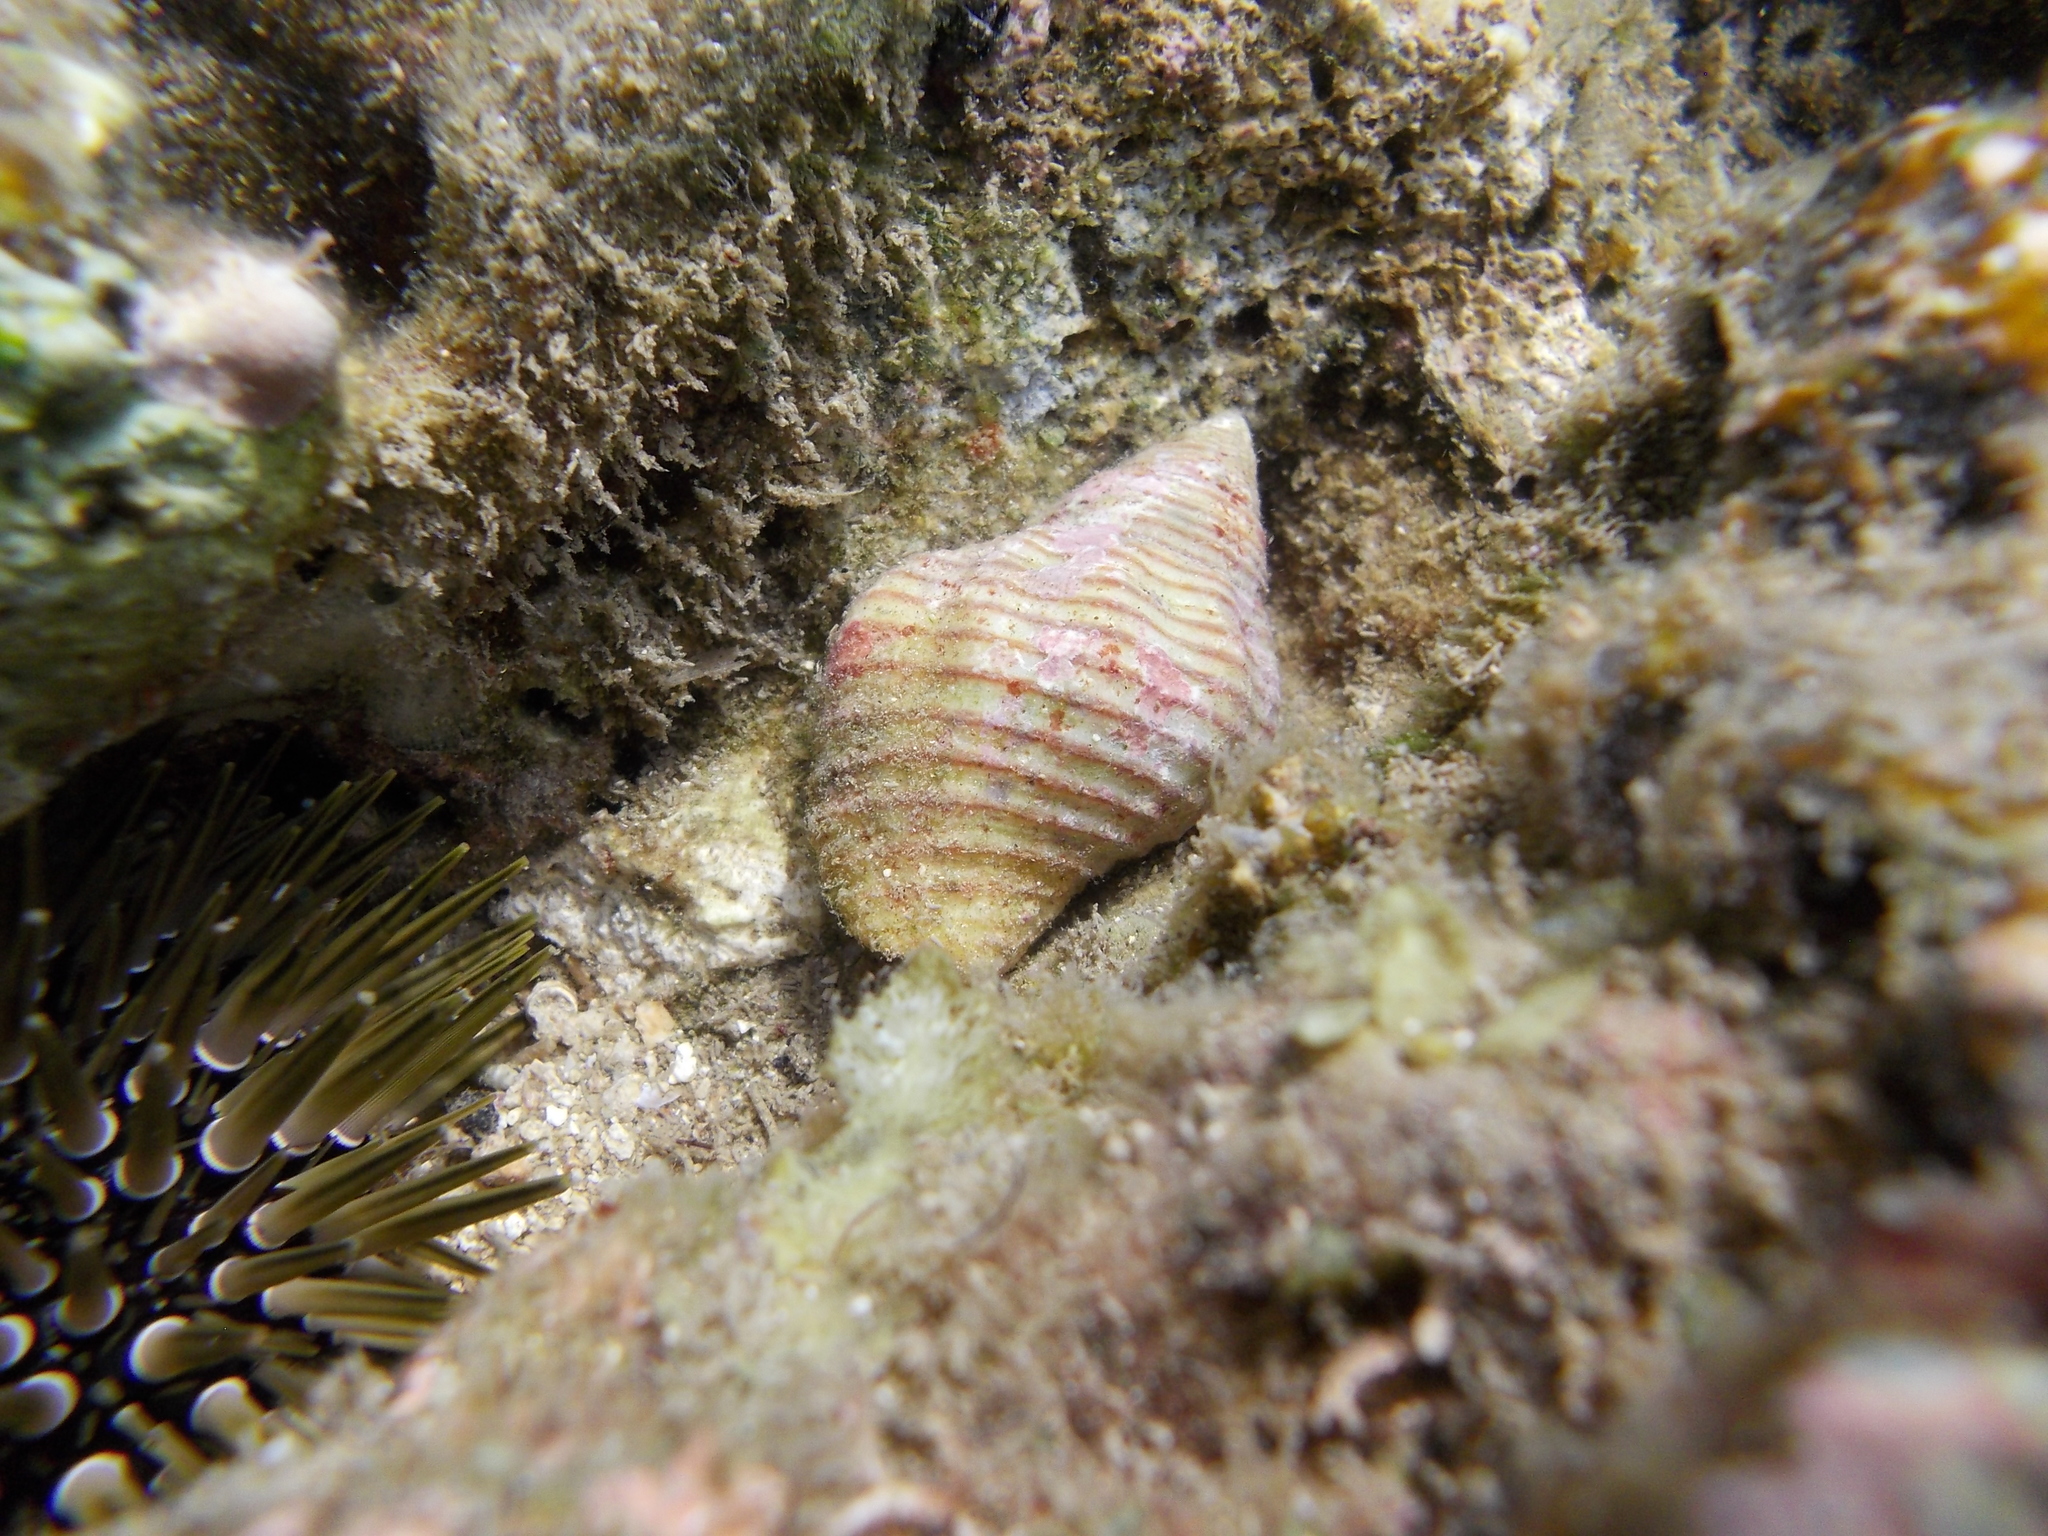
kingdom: Animalia
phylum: Mollusca
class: Gastropoda
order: Neogastropoda
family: Pisaniidae
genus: Pollia
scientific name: Pollia undosa
